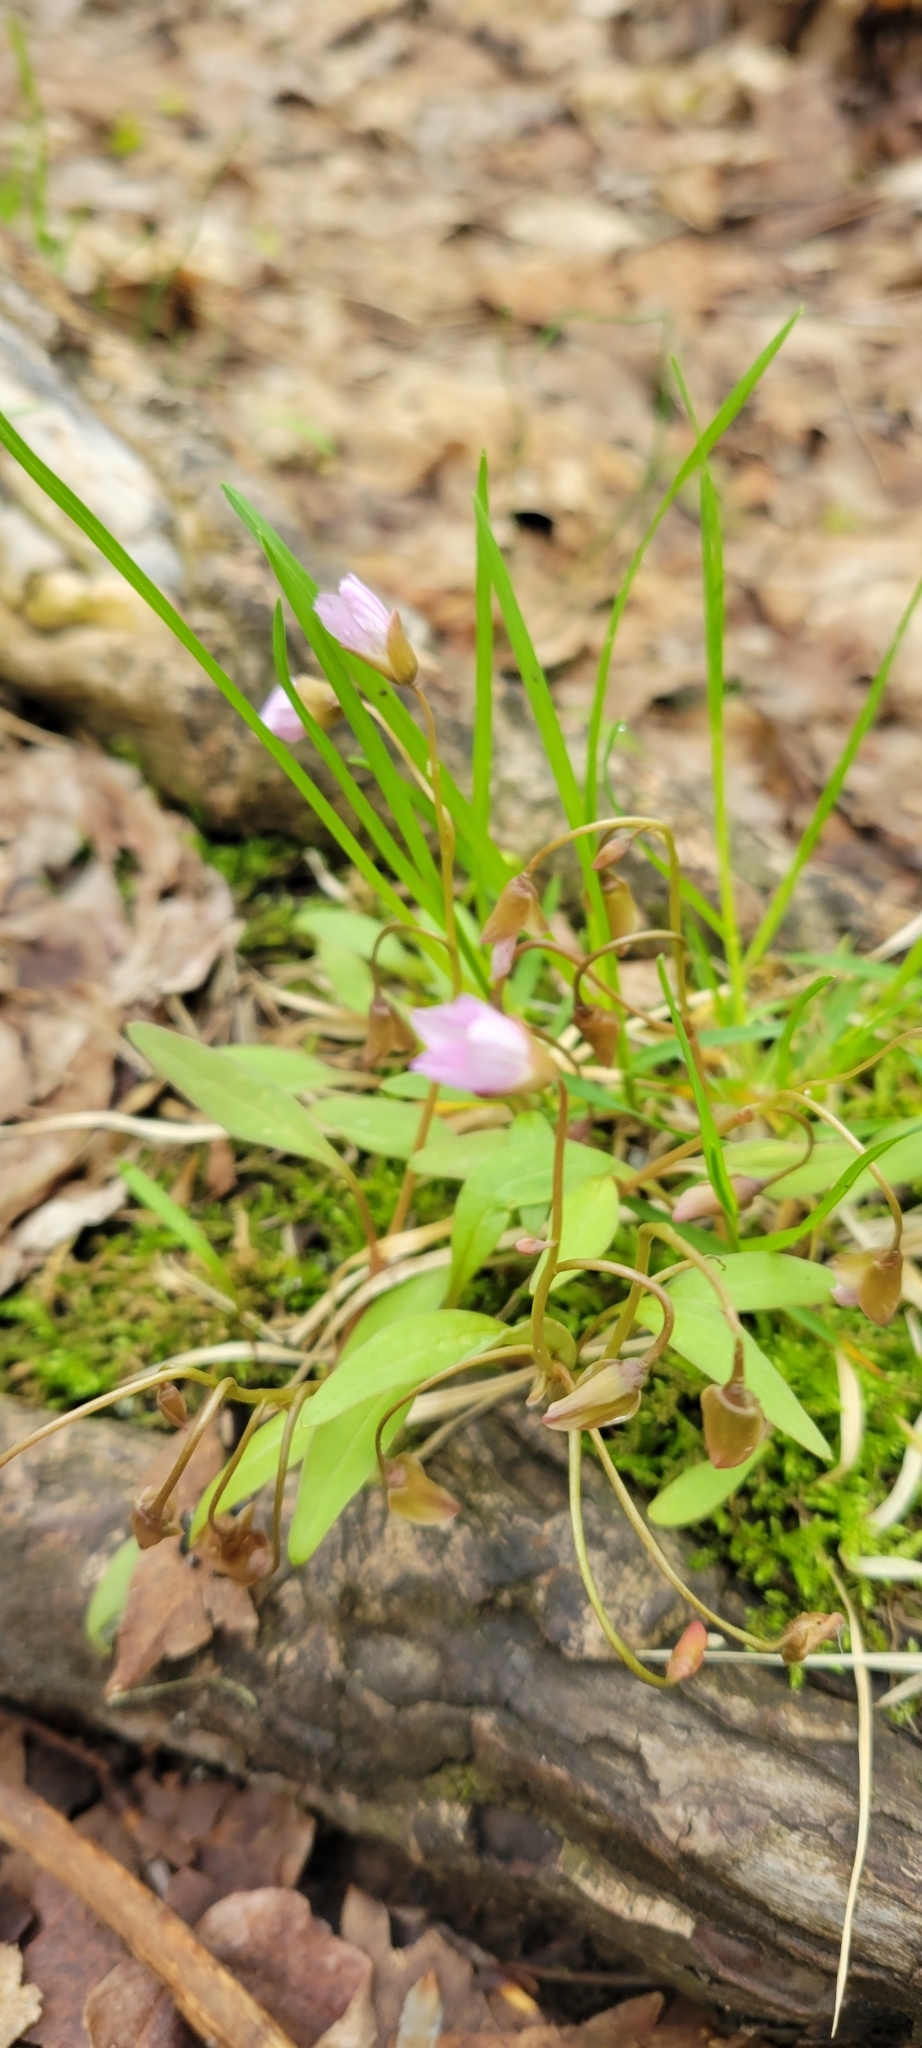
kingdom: Plantae
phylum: Tracheophyta
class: Magnoliopsida
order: Caryophyllales
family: Montiaceae
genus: Claytonia
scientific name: Claytonia caroliniana
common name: Carolina spring beauty
